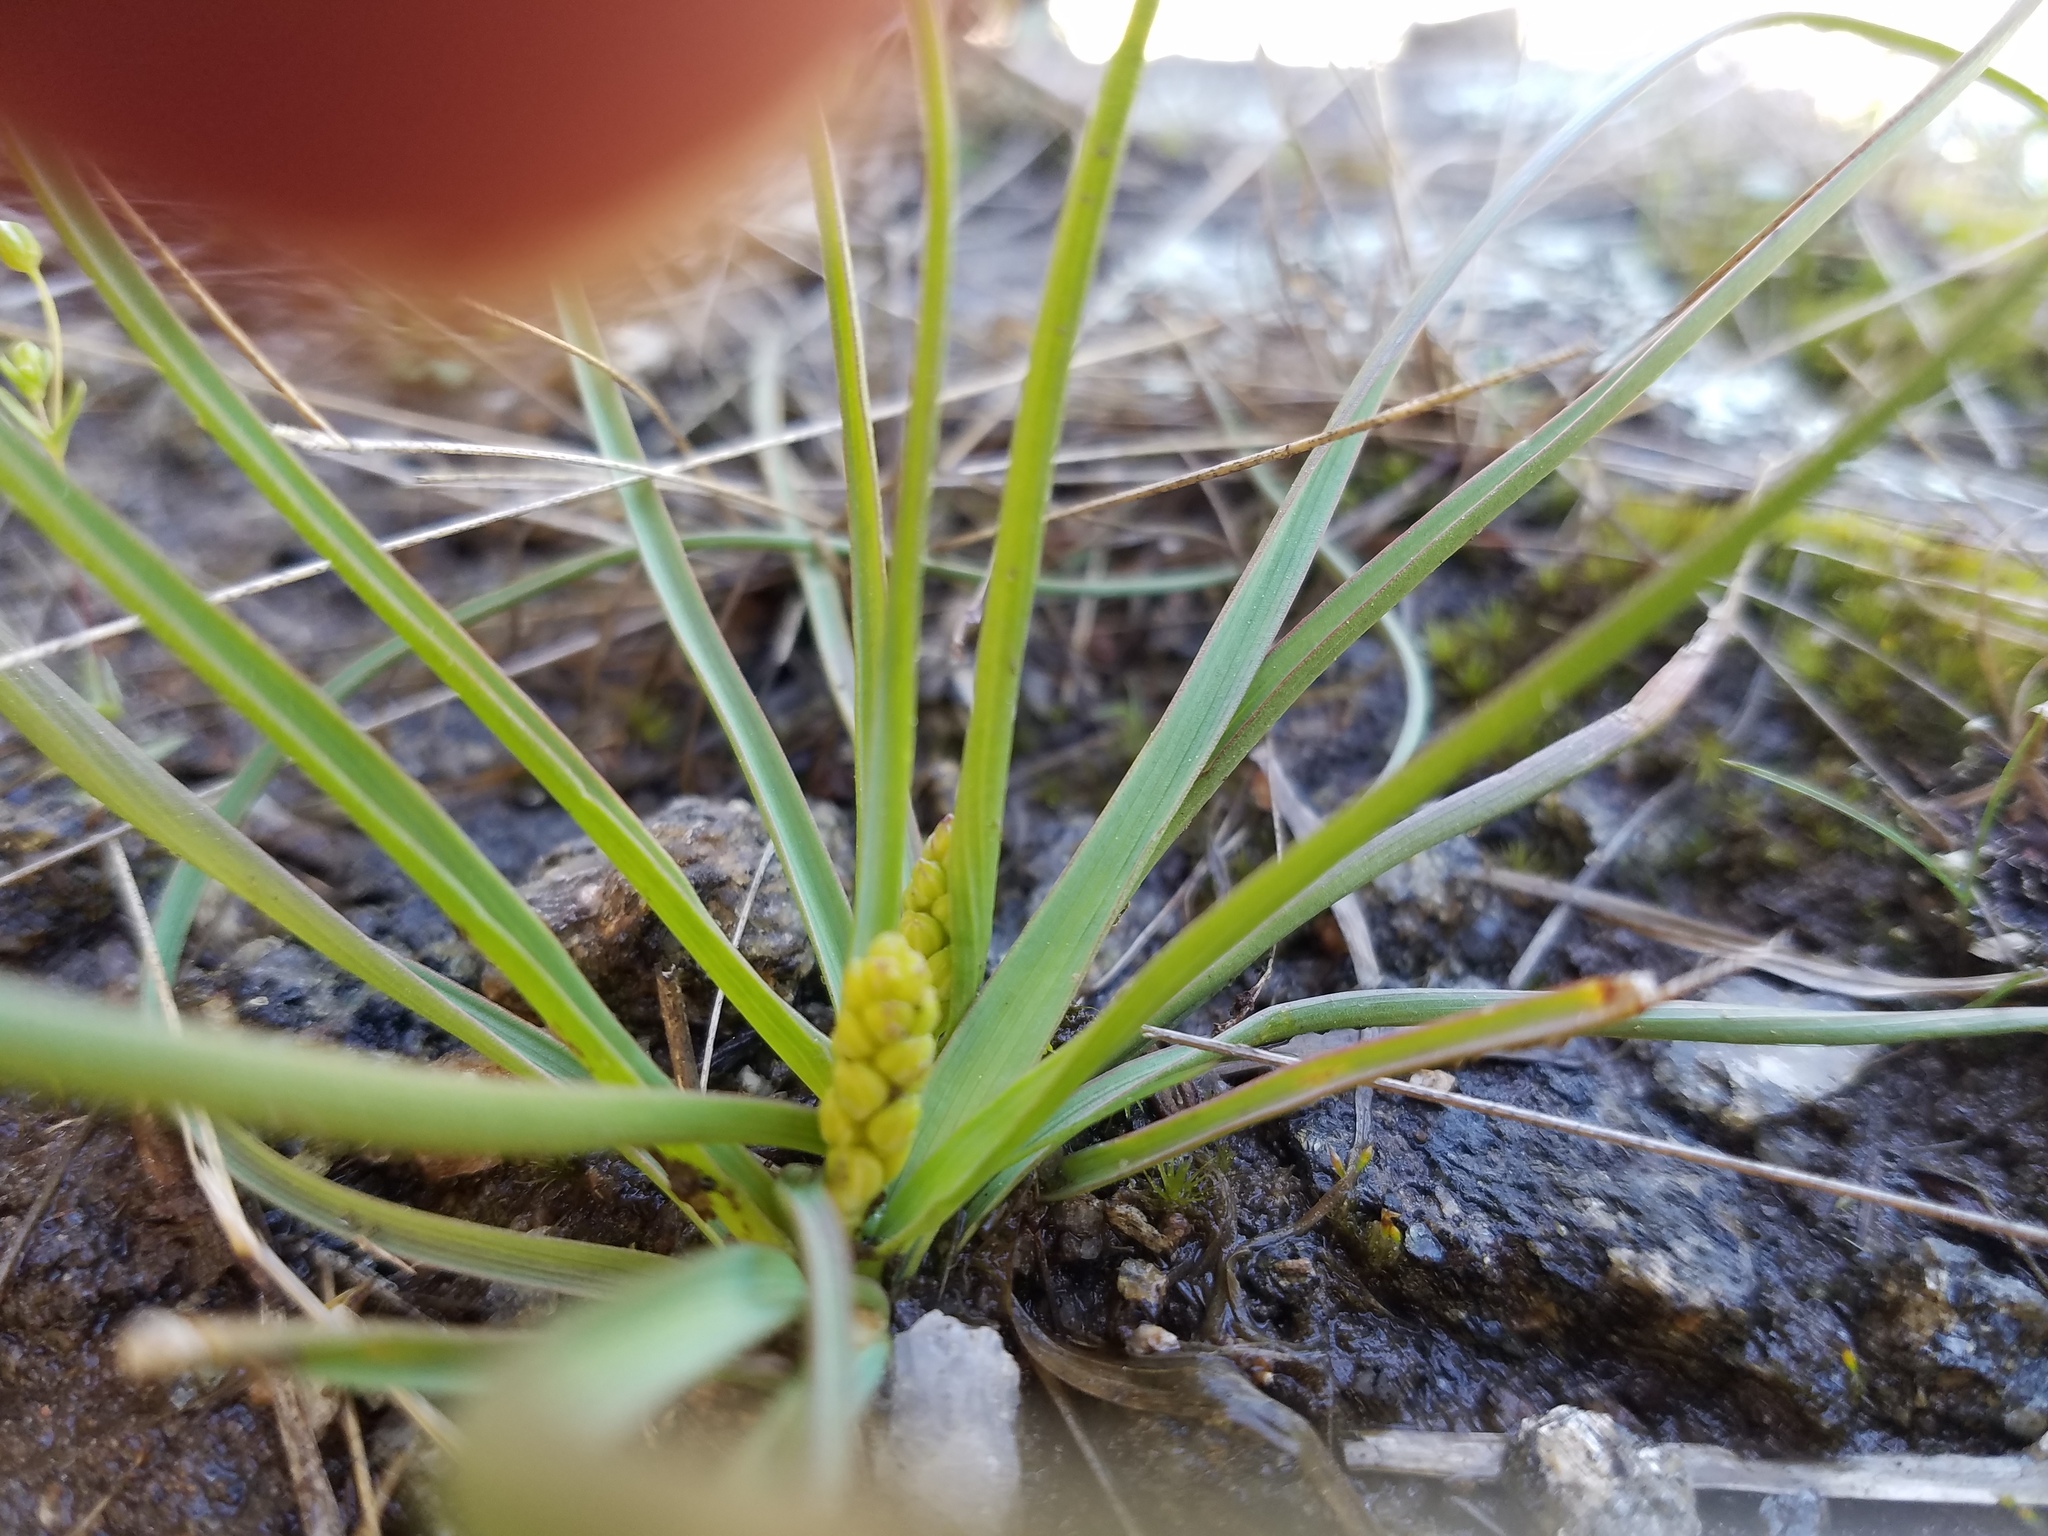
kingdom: Plantae
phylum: Tracheophyta
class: Liliopsida
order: Asparagales
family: Asparagaceae
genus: Schoenolirion
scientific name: Schoenolirion croceum
